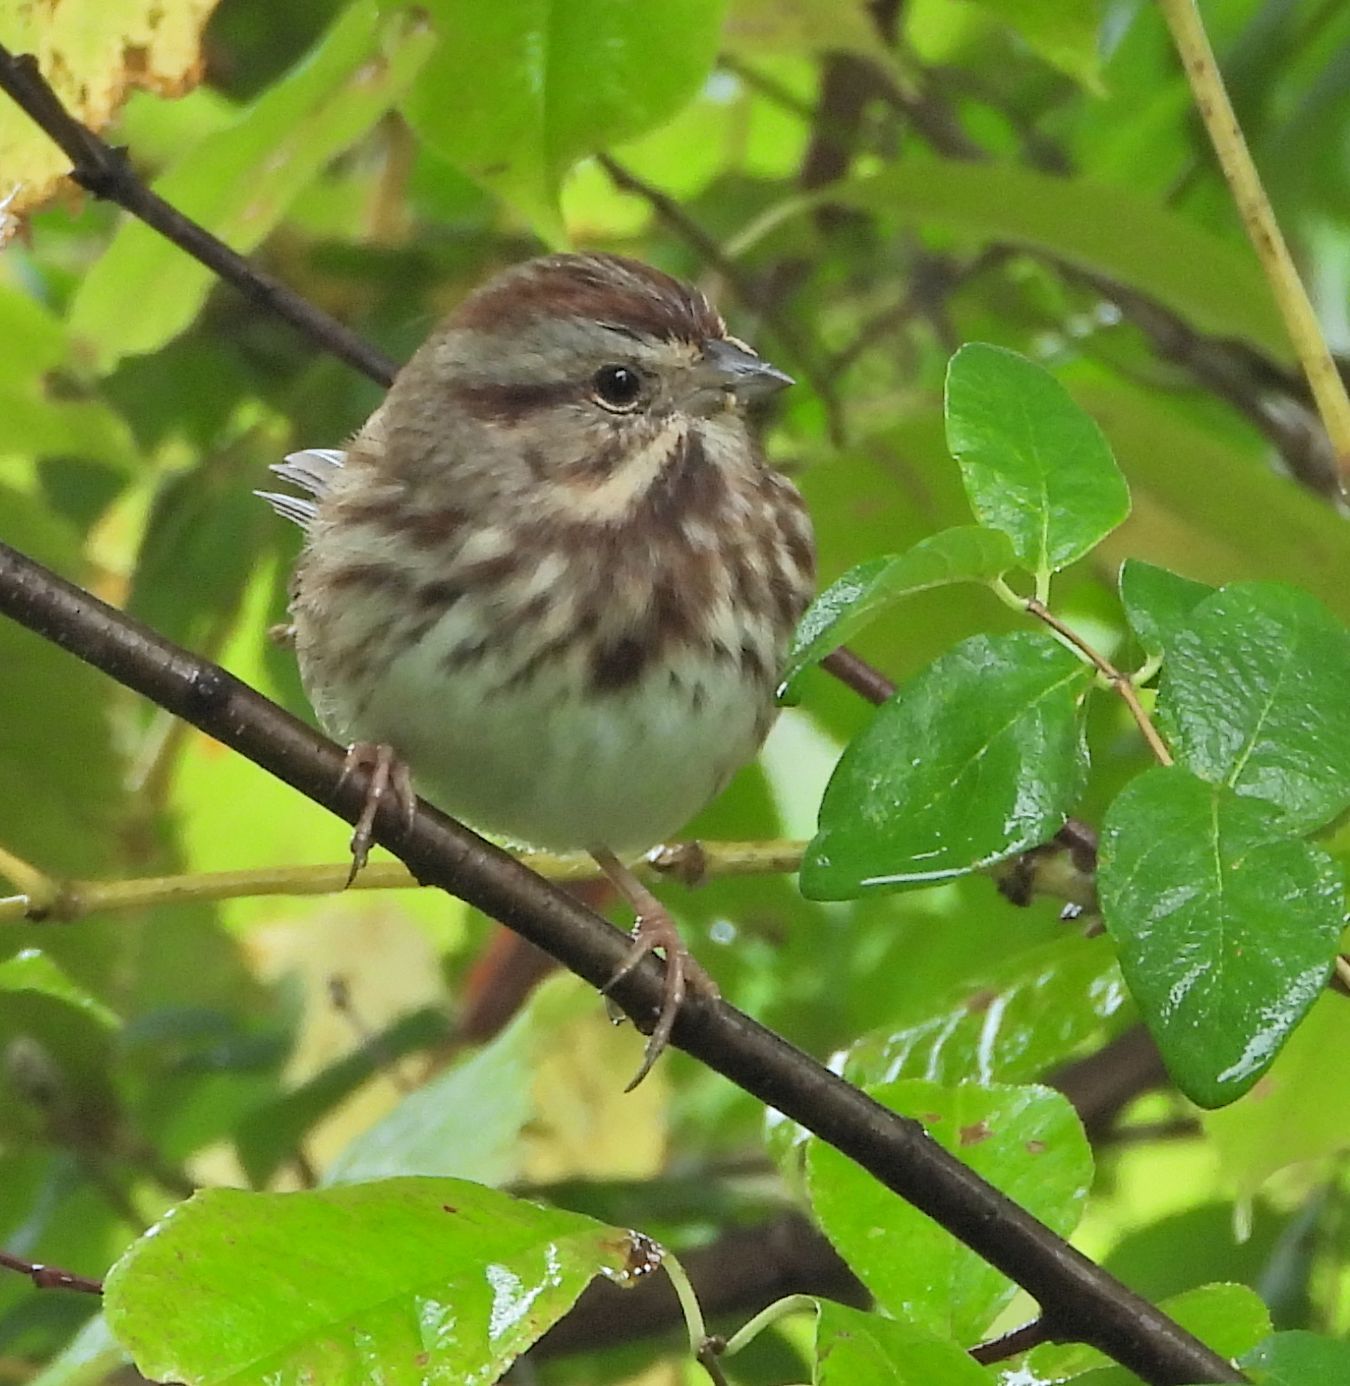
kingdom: Animalia
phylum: Chordata
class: Aves
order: Passeriformes
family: Passerellidae
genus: Melospiza
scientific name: Melospiza melodia
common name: Song sparrow
